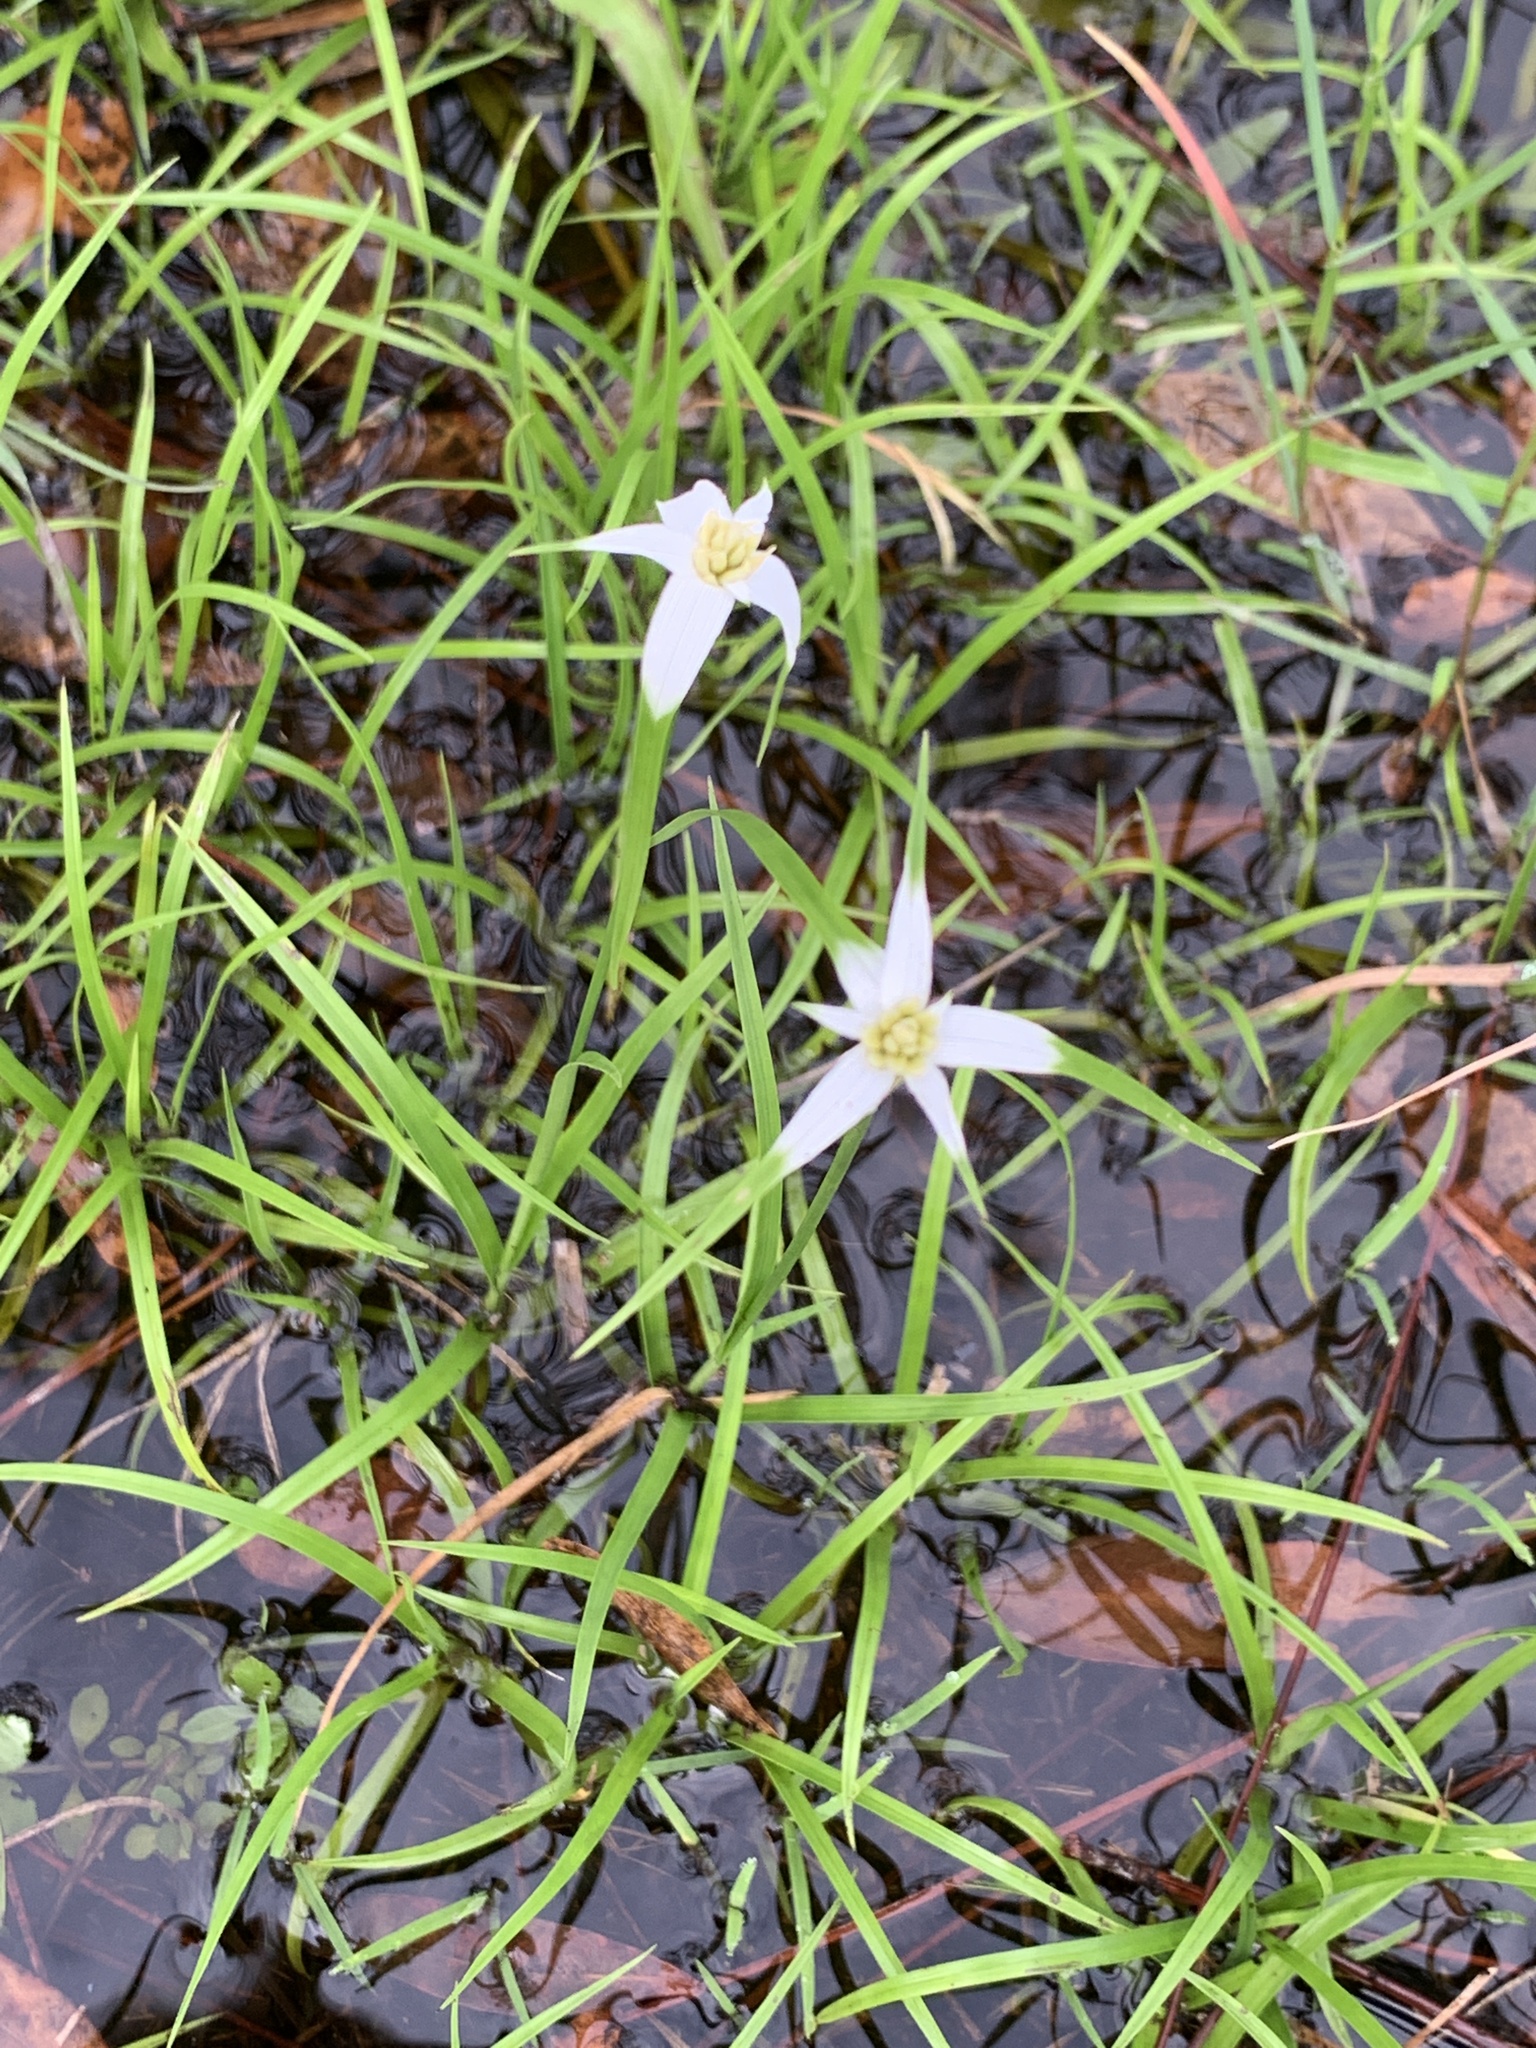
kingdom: Plantae
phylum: Tracheophyta
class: Liliopsida
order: Poales
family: Cyperaceae
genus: Rhynchospora
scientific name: Rhynchospora colorata
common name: Star sedge
